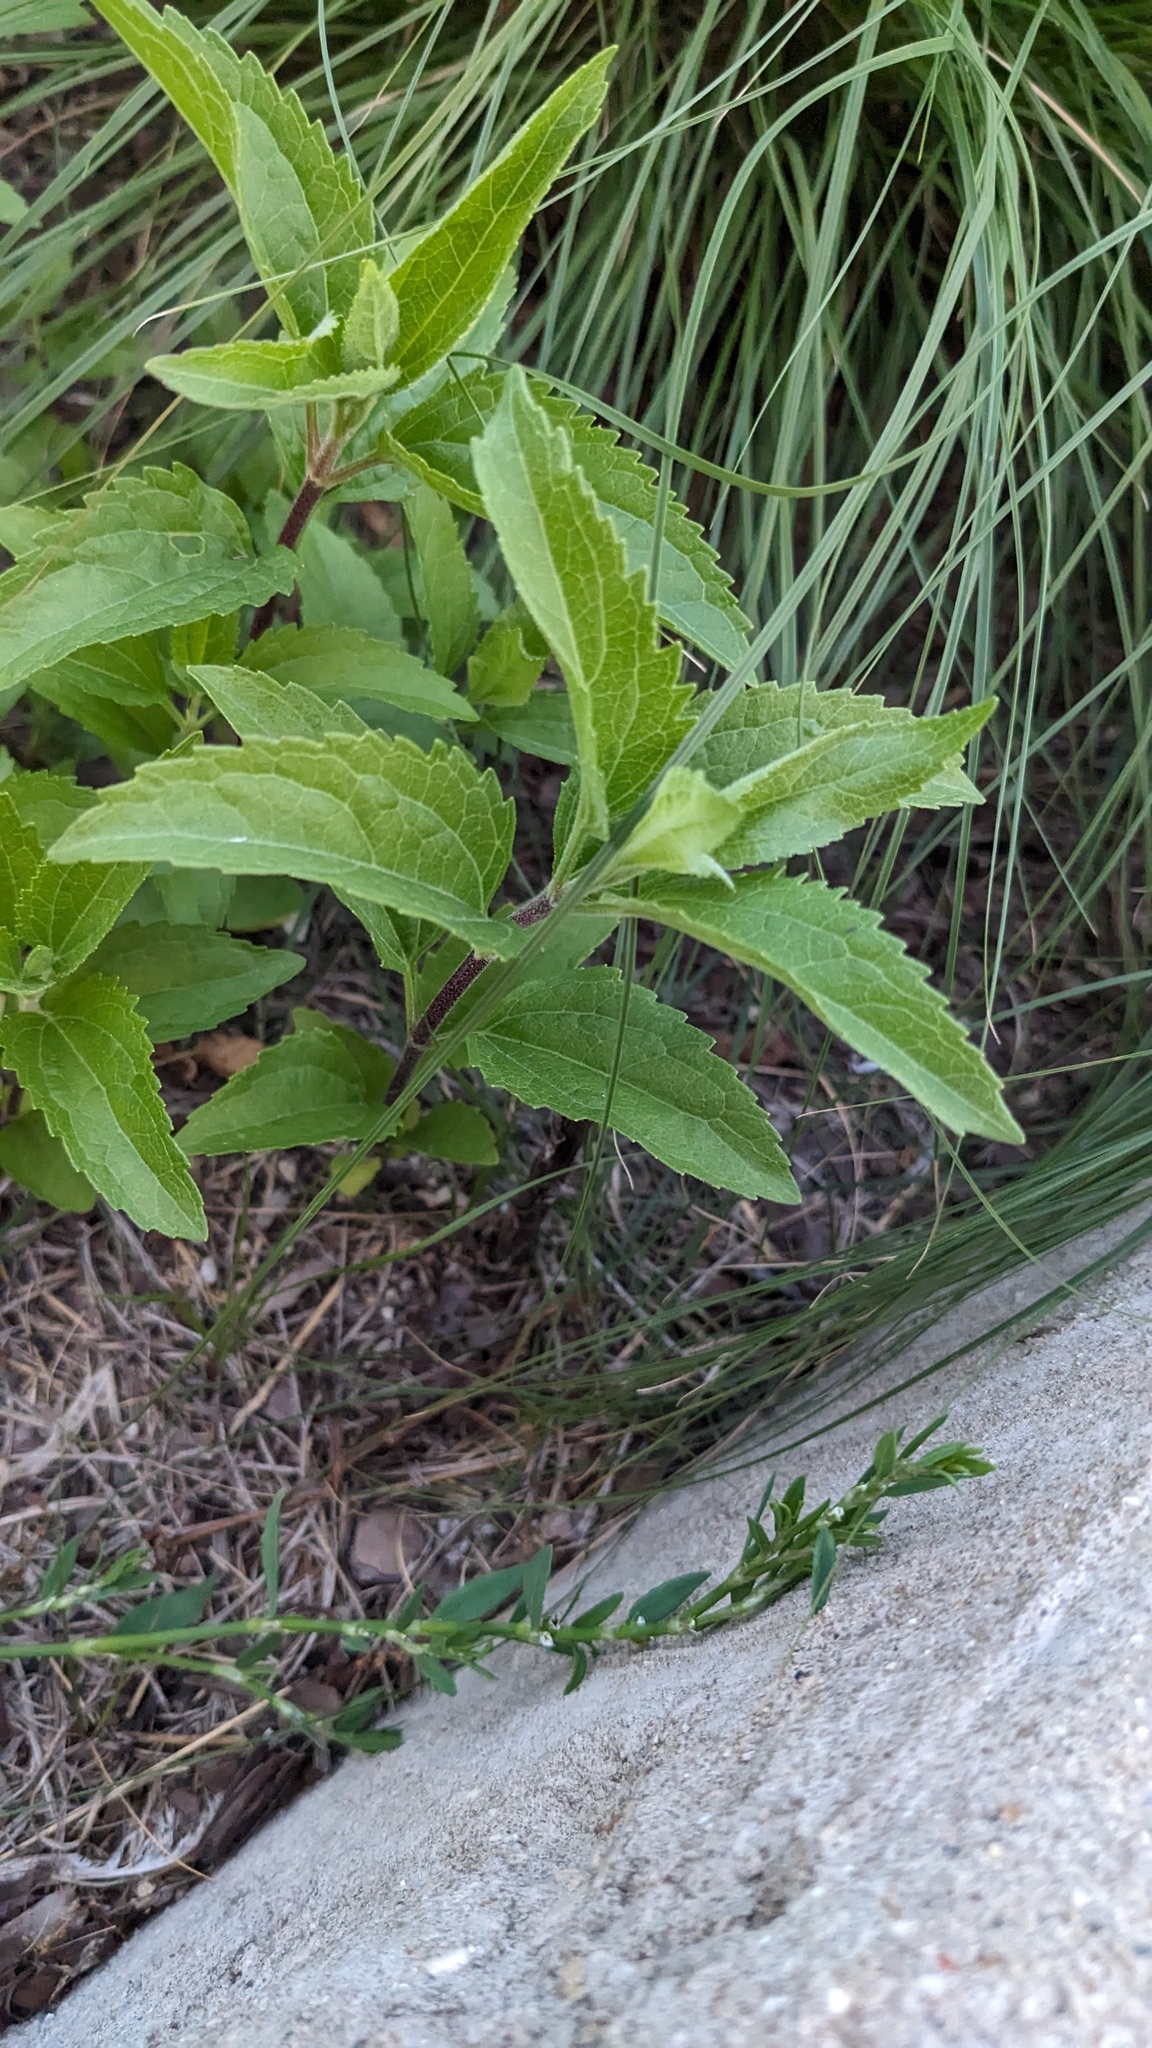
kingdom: Plantae
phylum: Tracheophyta
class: Magnoliopsida
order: Asterales
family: Asteraceae
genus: Eupatorium
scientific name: Eupatorium serotinum
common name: Late boneset
